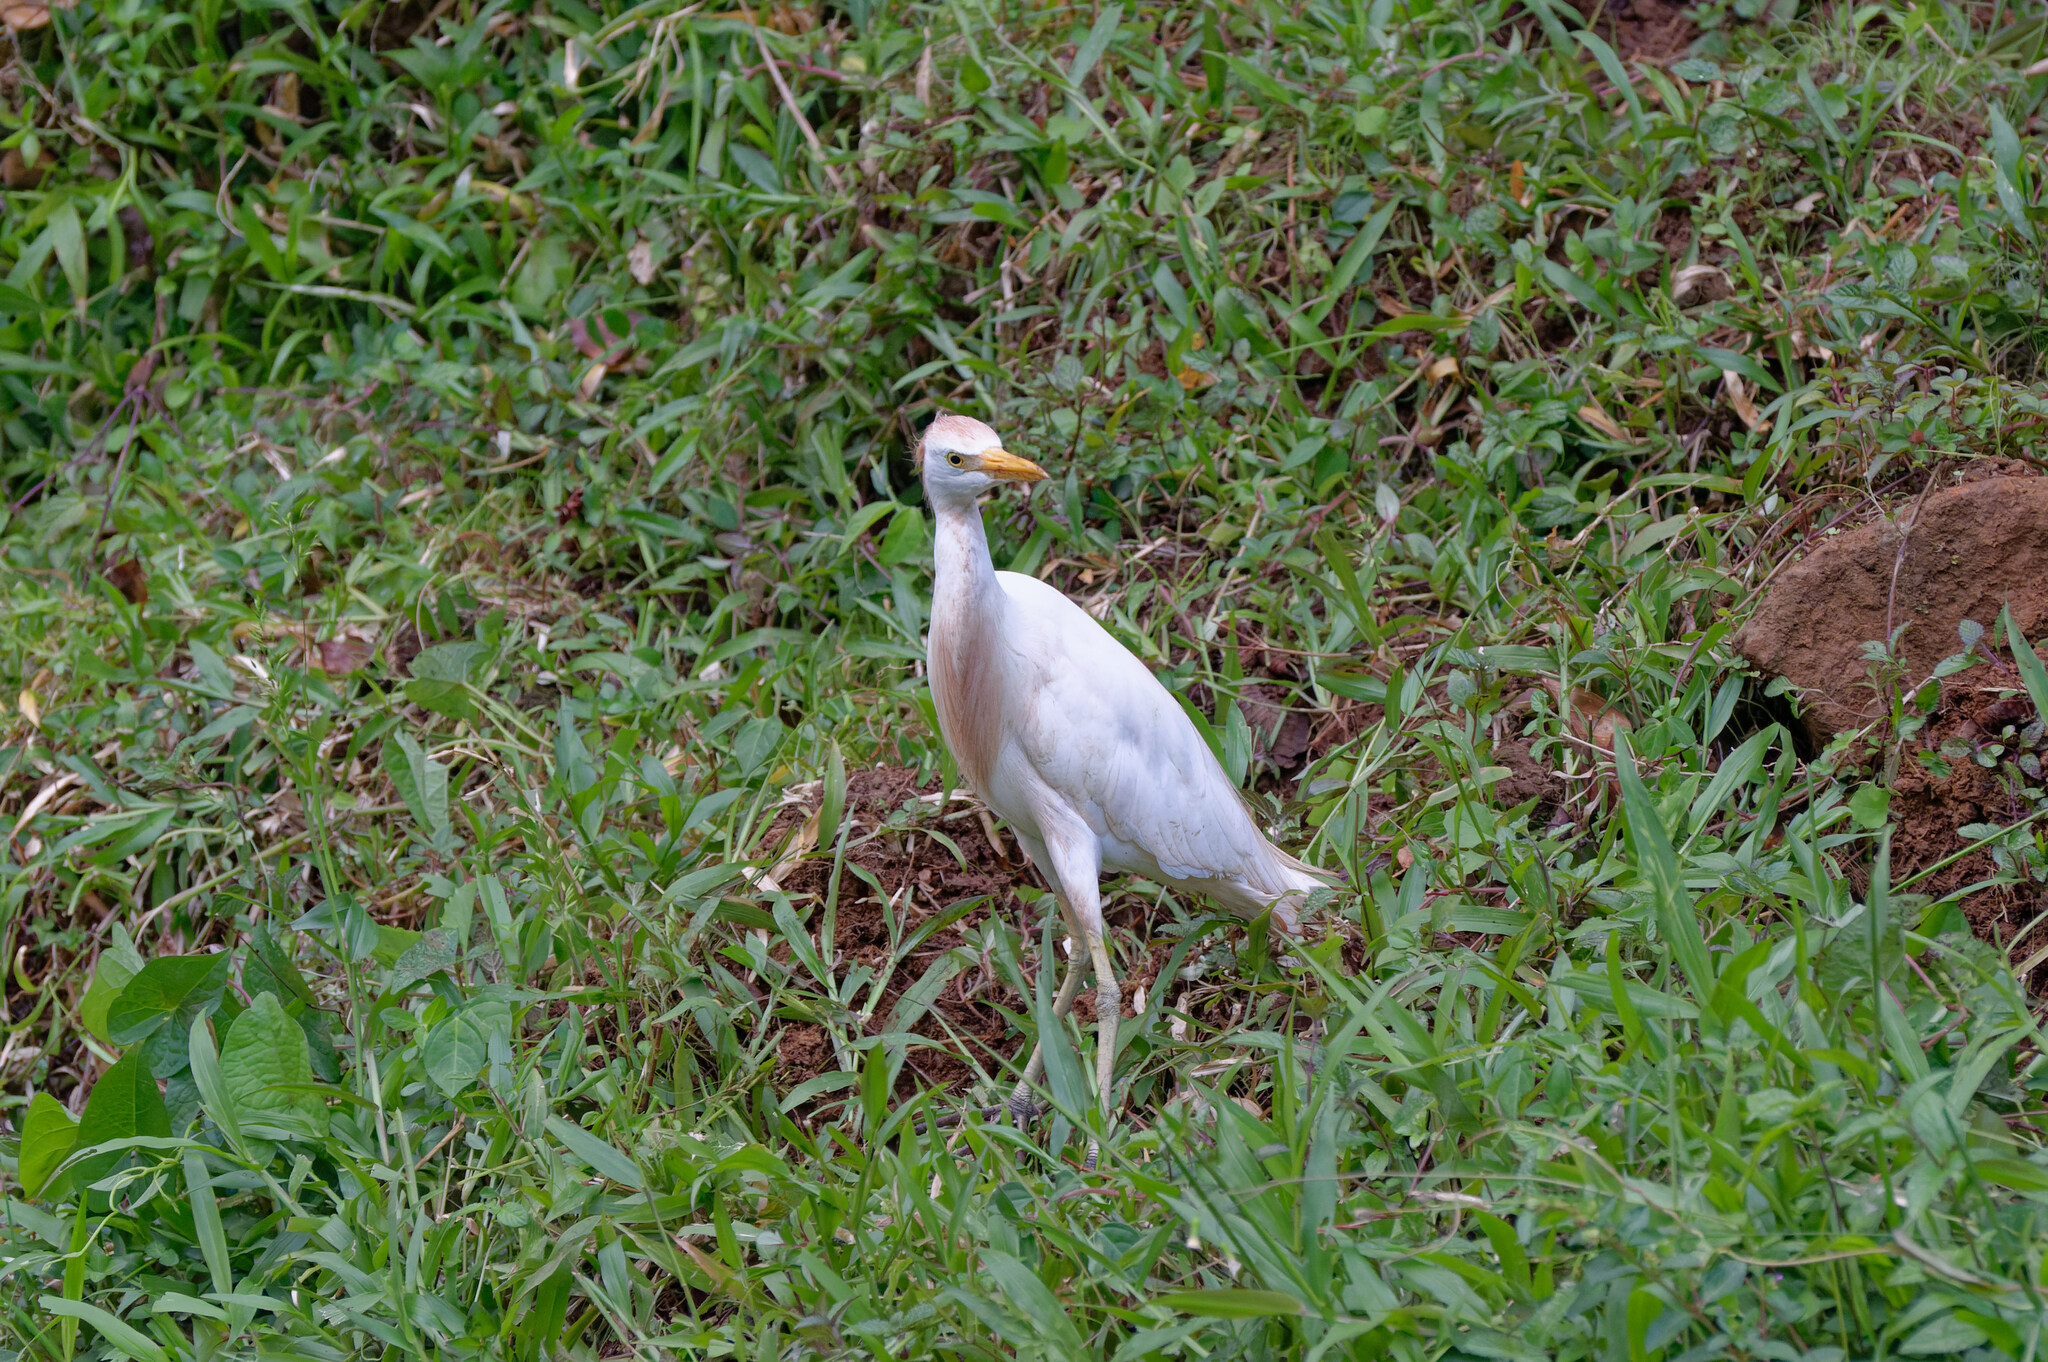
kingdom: Animalia
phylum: Chordata
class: Aves
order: Pelecaniformes
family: Ardeidae
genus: Bubulcus
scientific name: Bubulcus ibis
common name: Cattle egret
